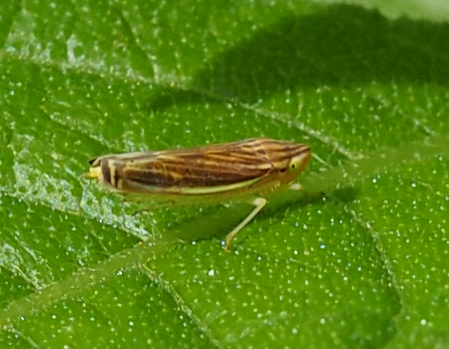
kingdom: Animalia
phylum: Arthropoda
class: Insecta
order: Hemiptera
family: Cicadellidae
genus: Sibovia
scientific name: Sibovia occatoria
